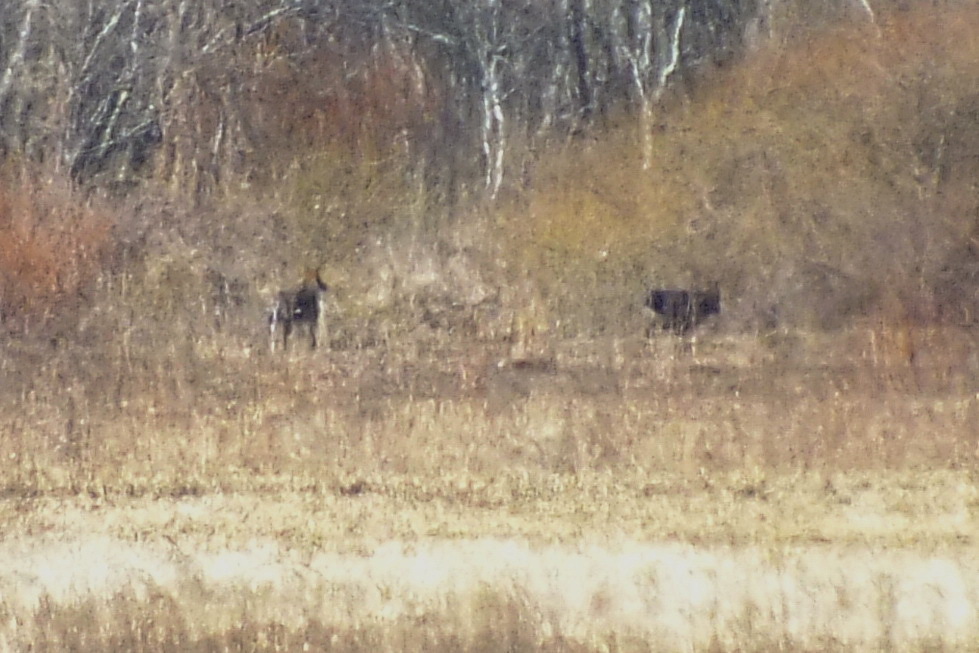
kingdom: Animalia
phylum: Chordata
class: Mammalia
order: Artiodactyla
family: Cervidae
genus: Alces
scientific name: Alces alces
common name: Moose
